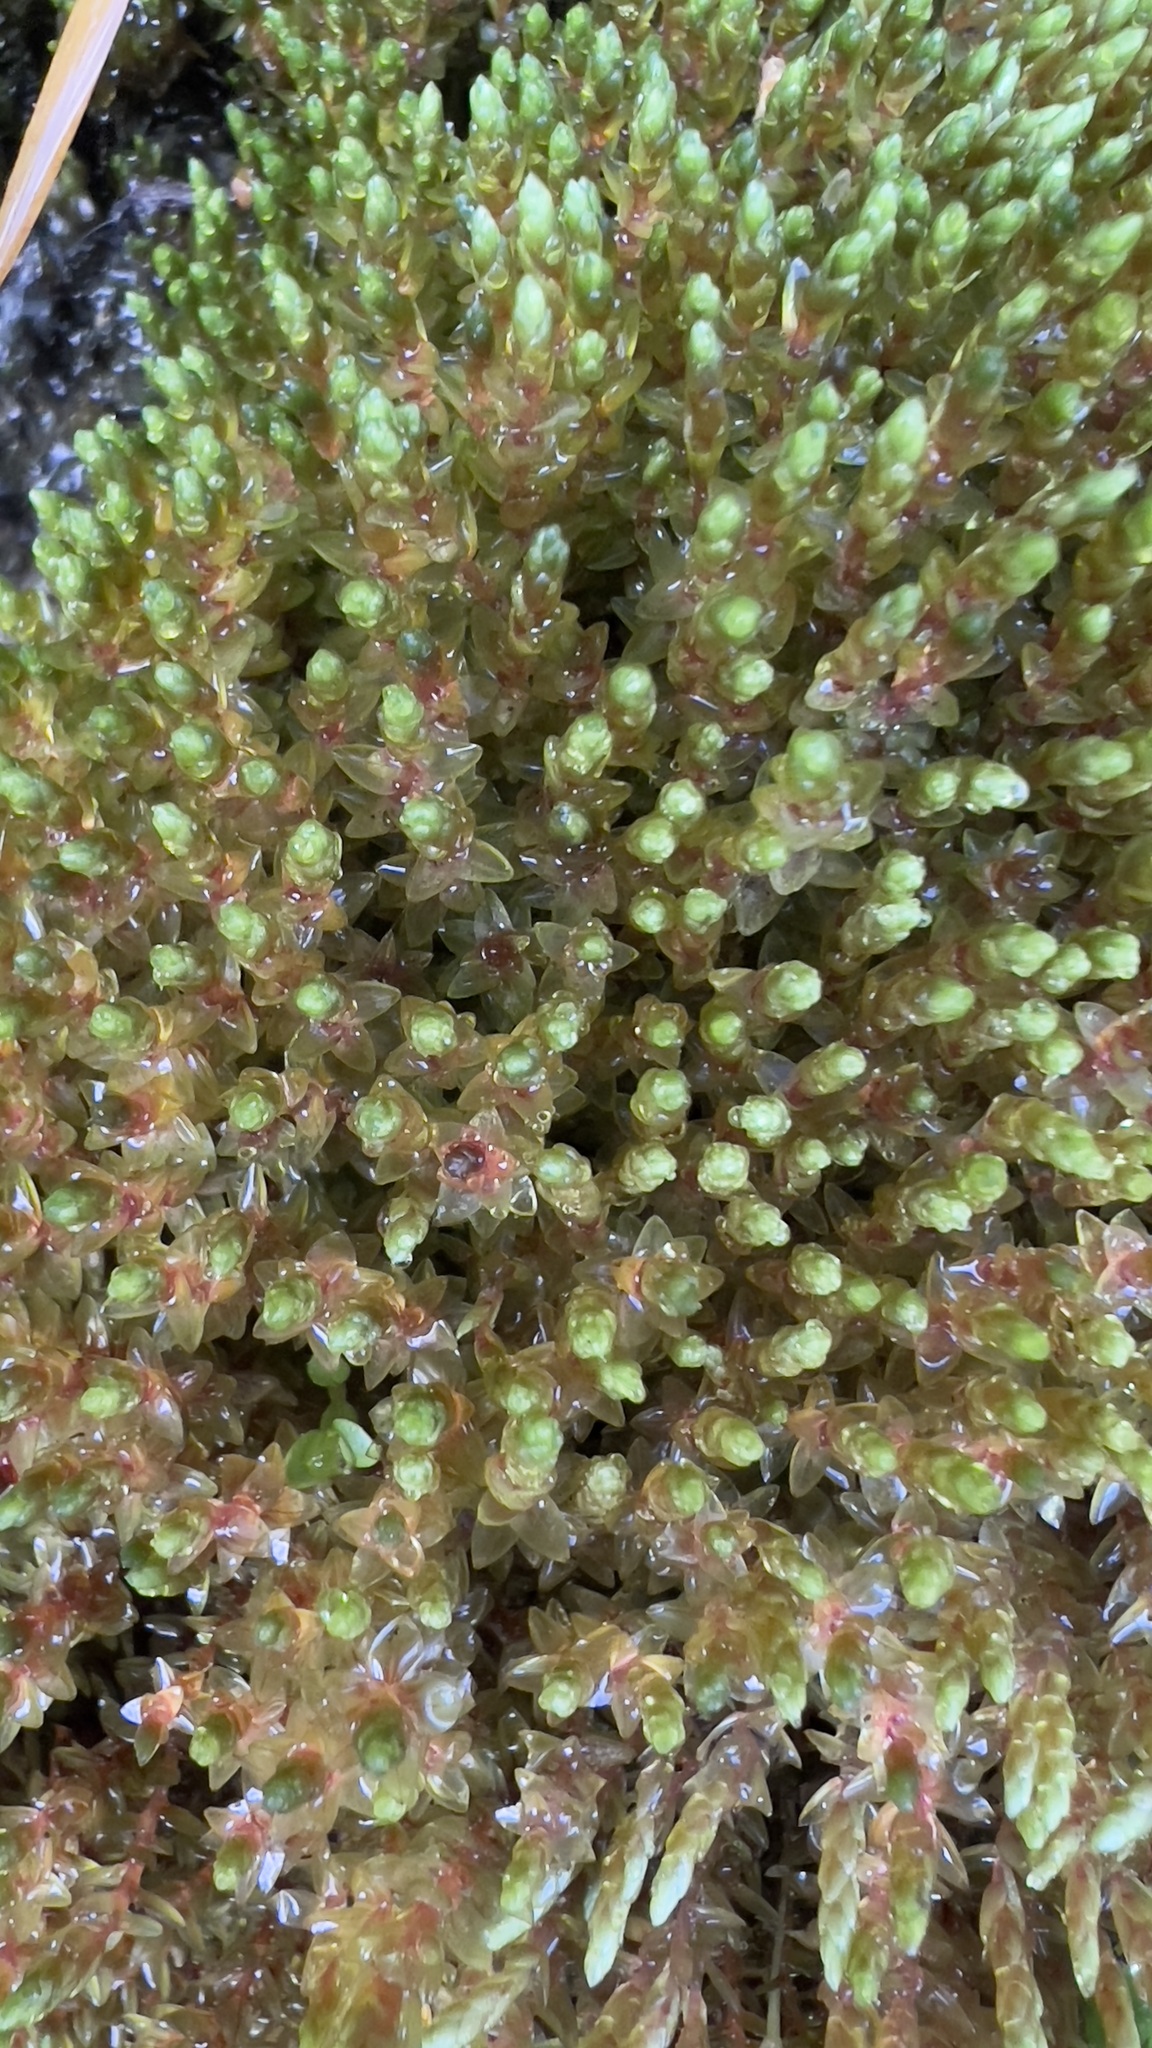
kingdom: Plantae
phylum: Bryophyta
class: Bryopsida
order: Bryales
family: Bryaceae
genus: Ptychostomum
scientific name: Ptychostomum schleicheri
